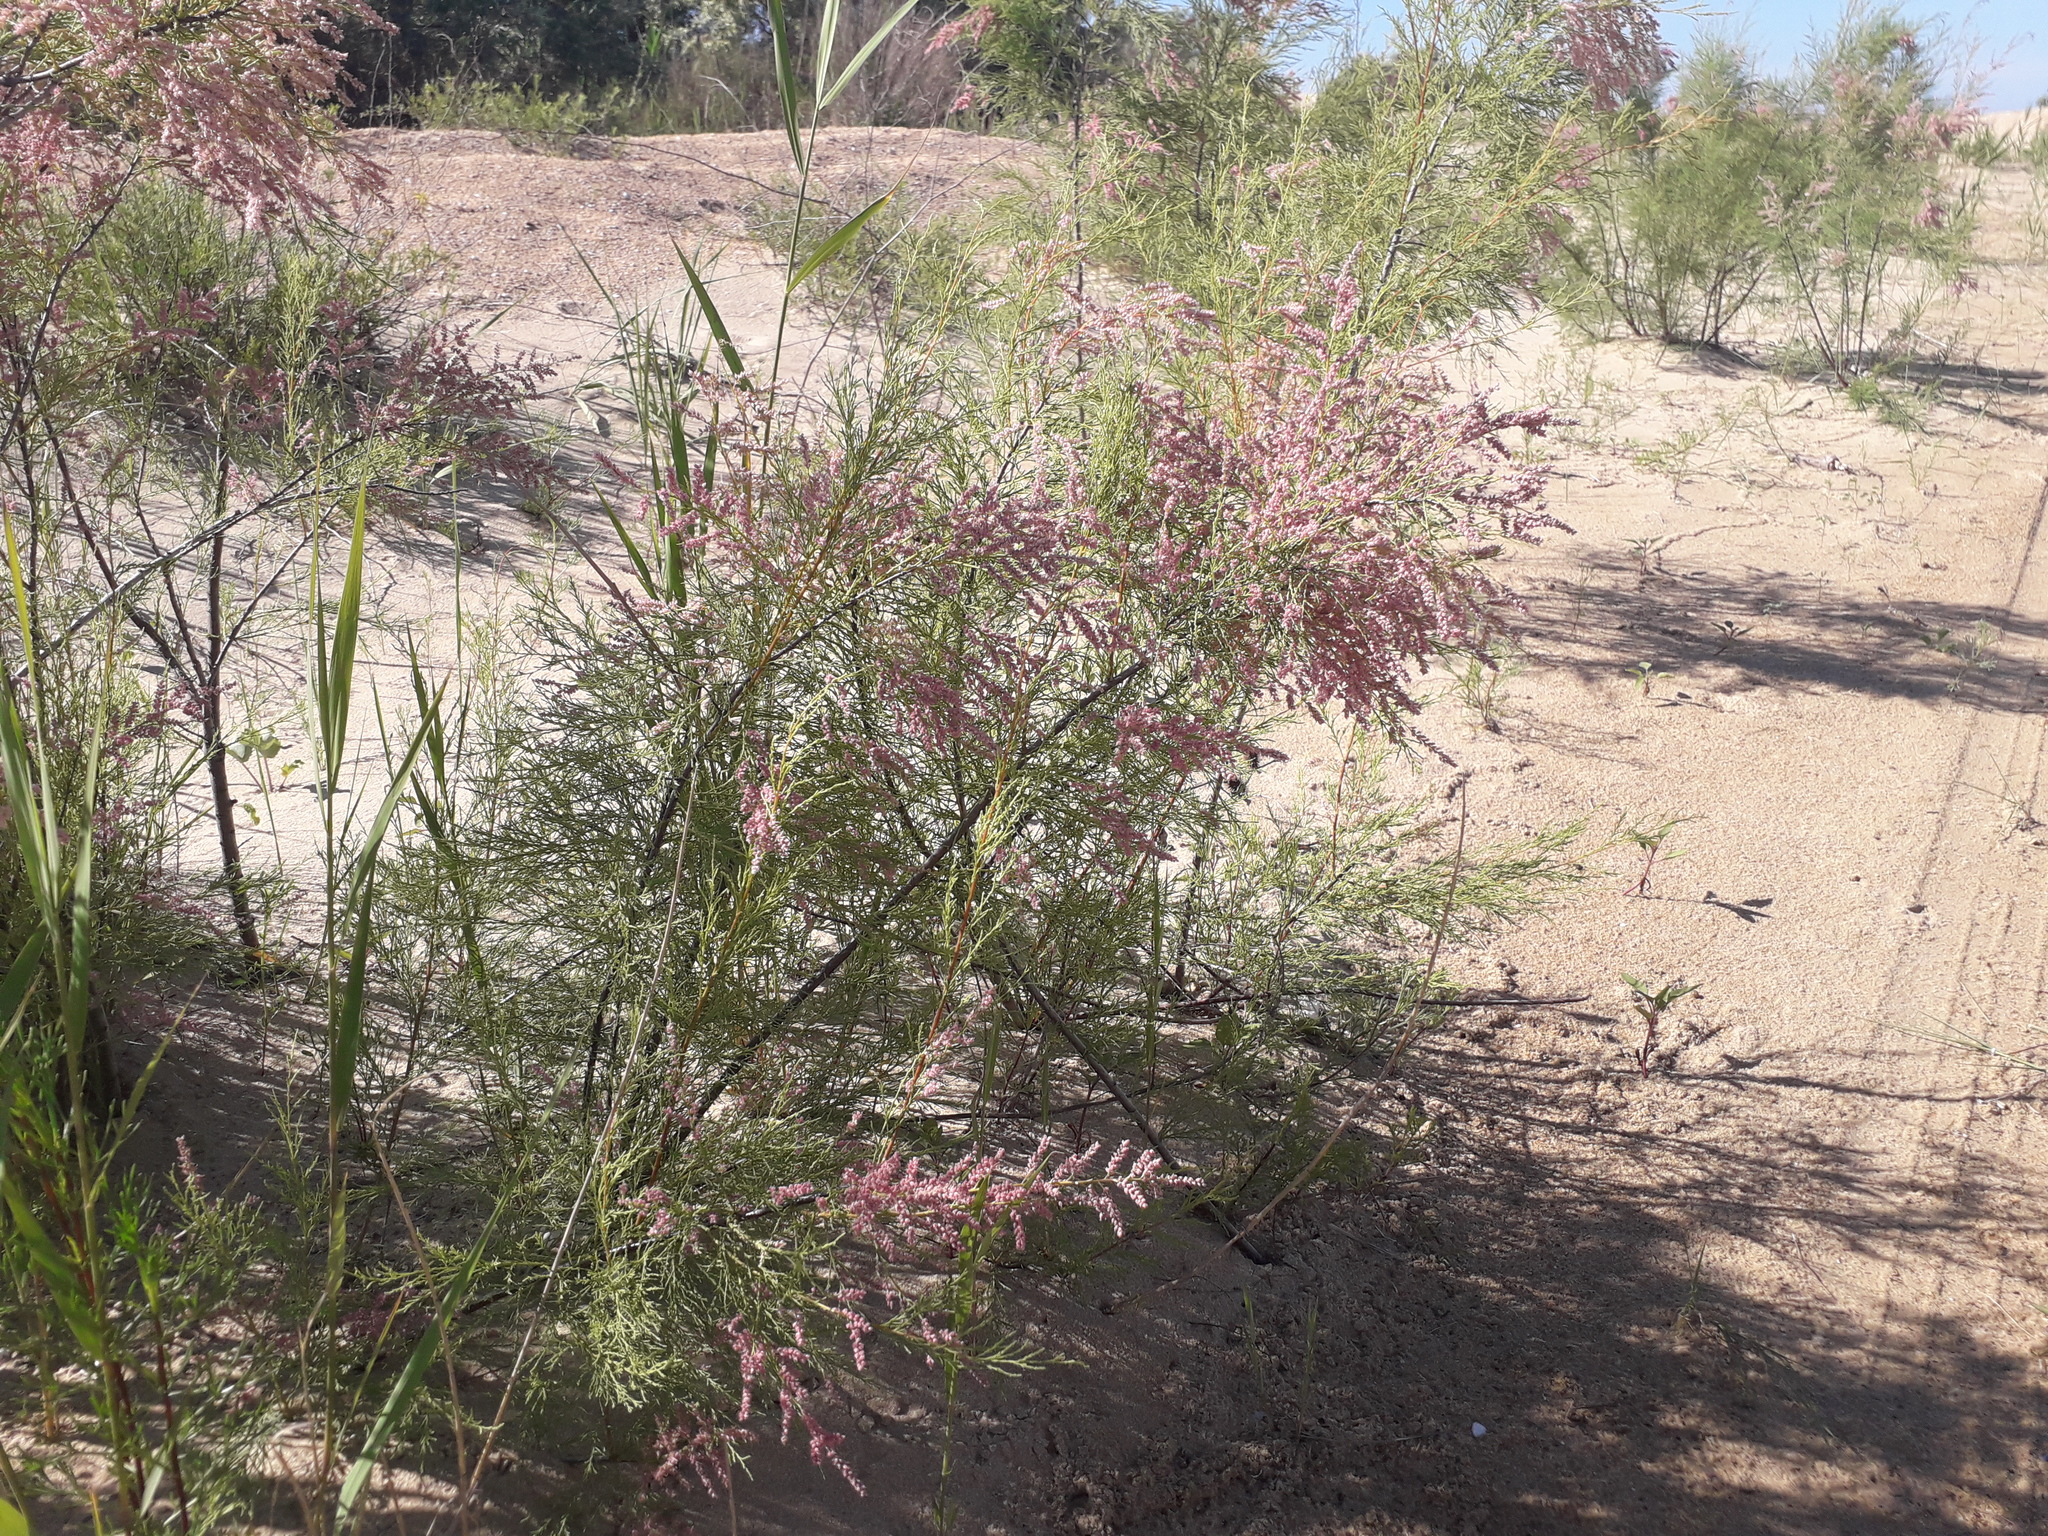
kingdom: Plantae
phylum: Tracheophyta
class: Magnoliopsida
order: Caryophyllales
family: Tamaricaceae
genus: Tamarix
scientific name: Tamarix ramosissima
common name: Pink tamarisk
